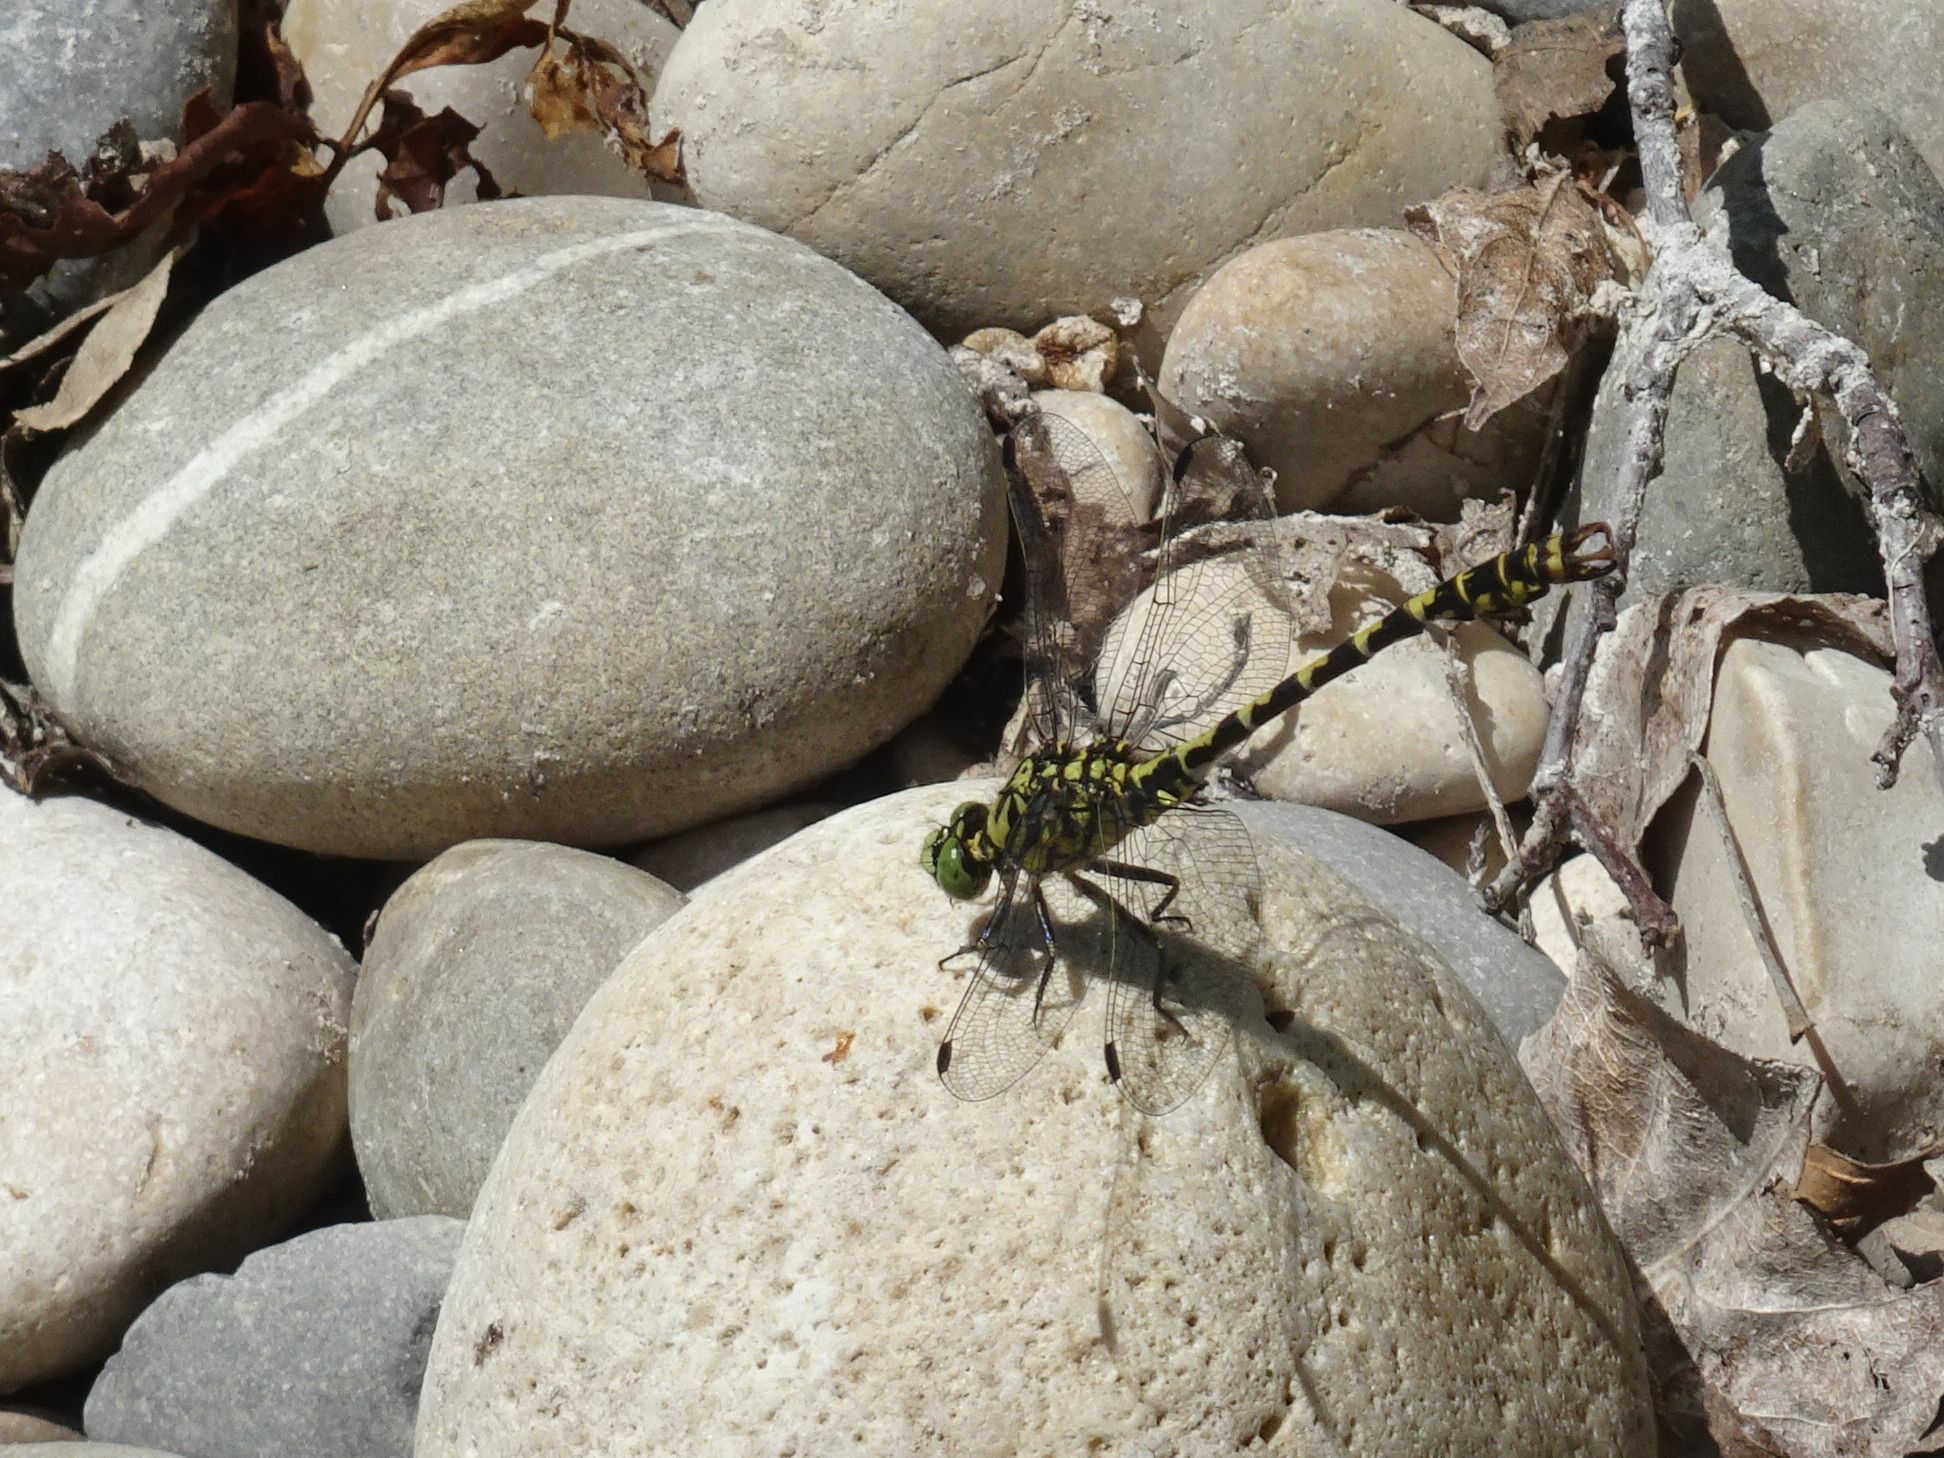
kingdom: Animalia
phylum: Arthropoda
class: Insecta
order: Odonata
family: Gomphidae
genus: Onychogomphus
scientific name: Onychogomphus forcipatus
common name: Small pincertail
